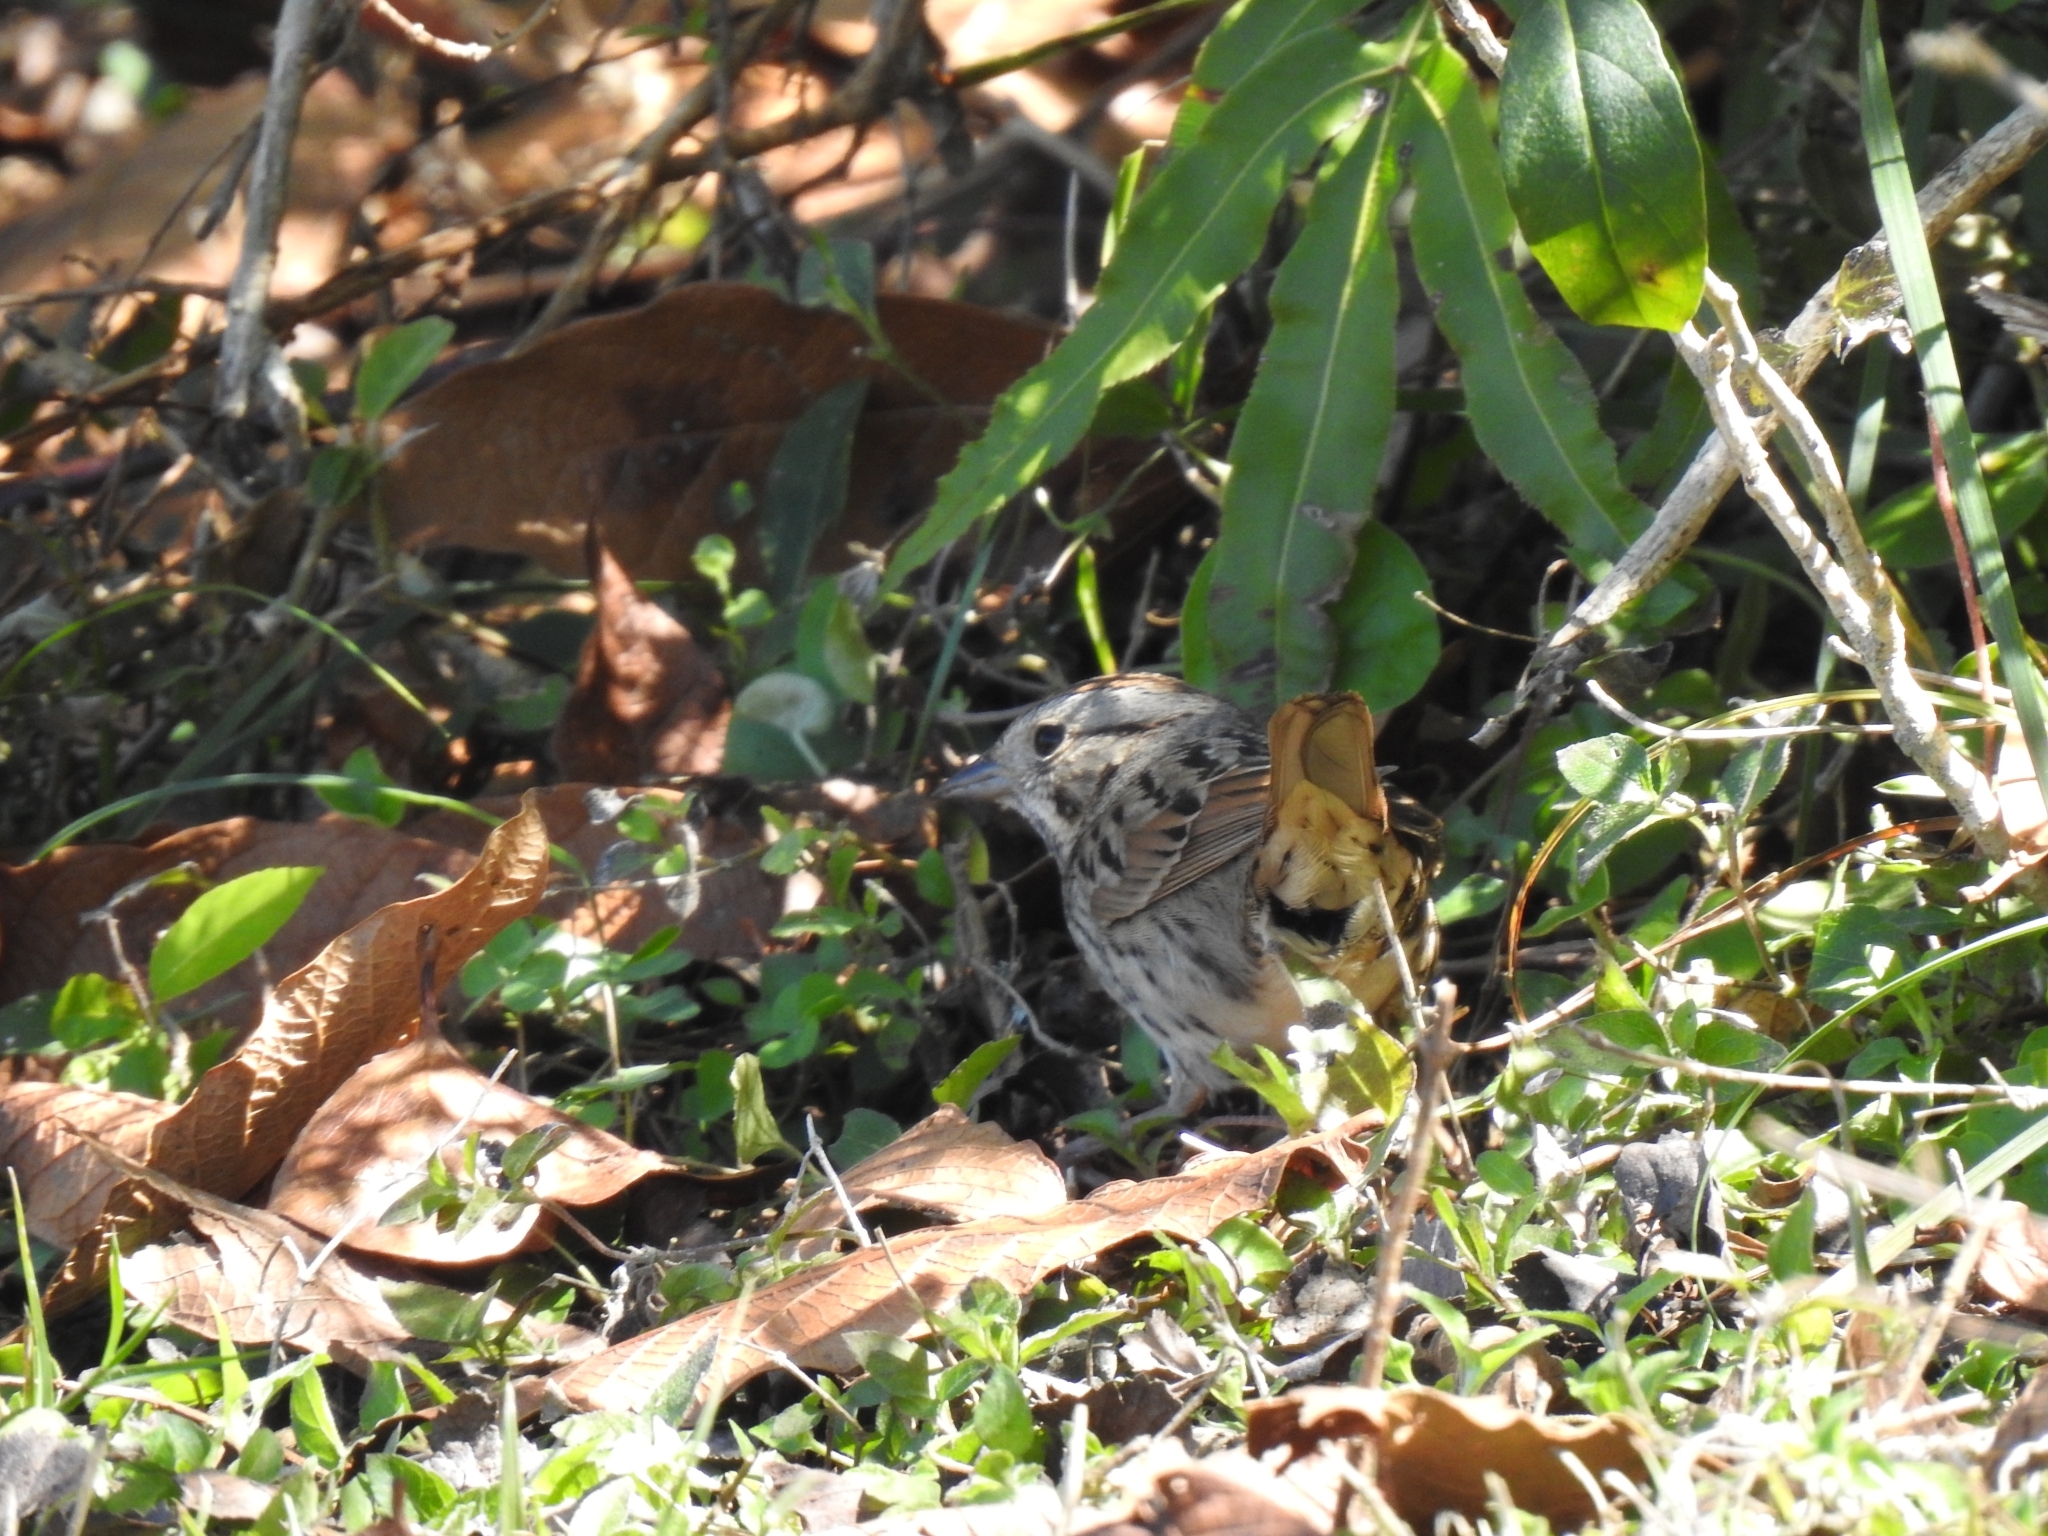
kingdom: Animalia
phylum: Chordata
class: Aves
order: Passeriformes
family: Passerellidae
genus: Melospiza
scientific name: Melospiza lincolnii
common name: Lincoln's sparrow
